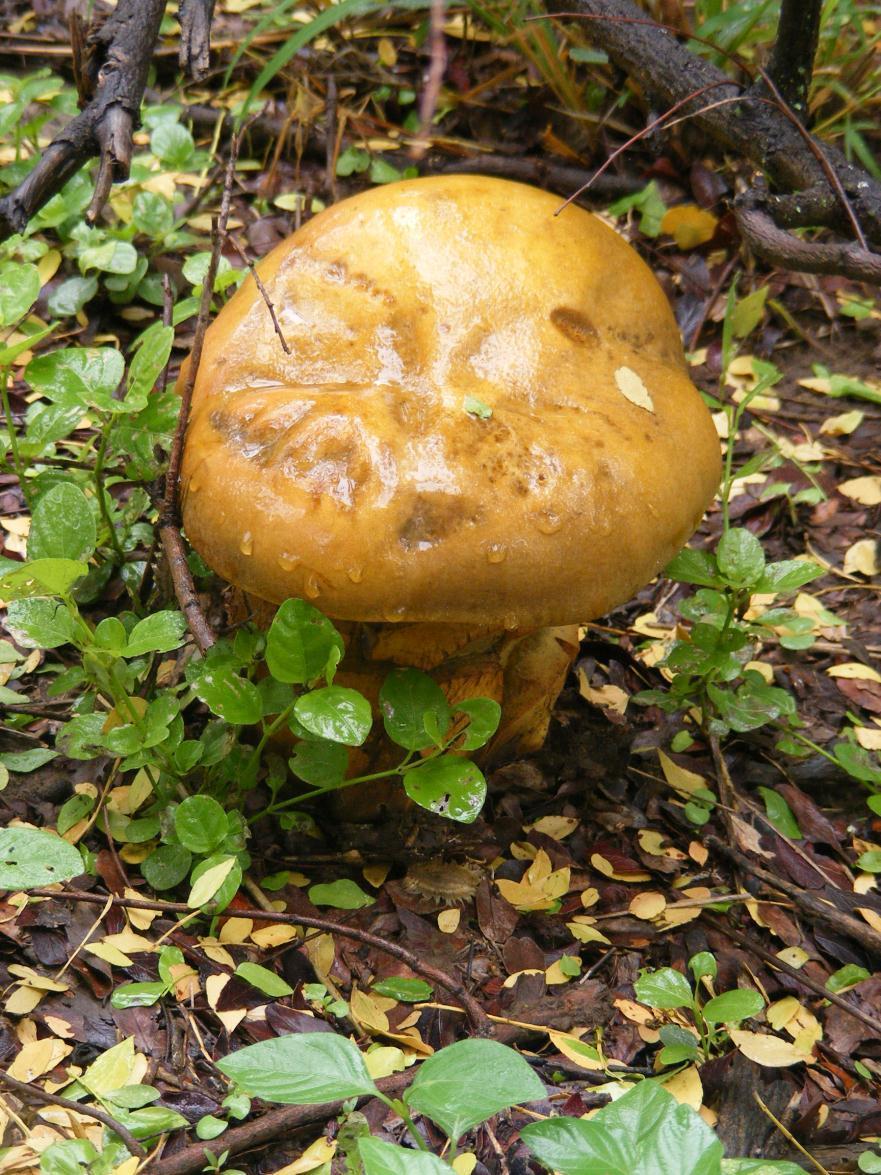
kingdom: Fungi
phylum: Basidiomycota
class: Agaricomycetes
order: Boletales
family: Boletinellaceae
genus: Phlebopus
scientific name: Phlebopus sudanicus
